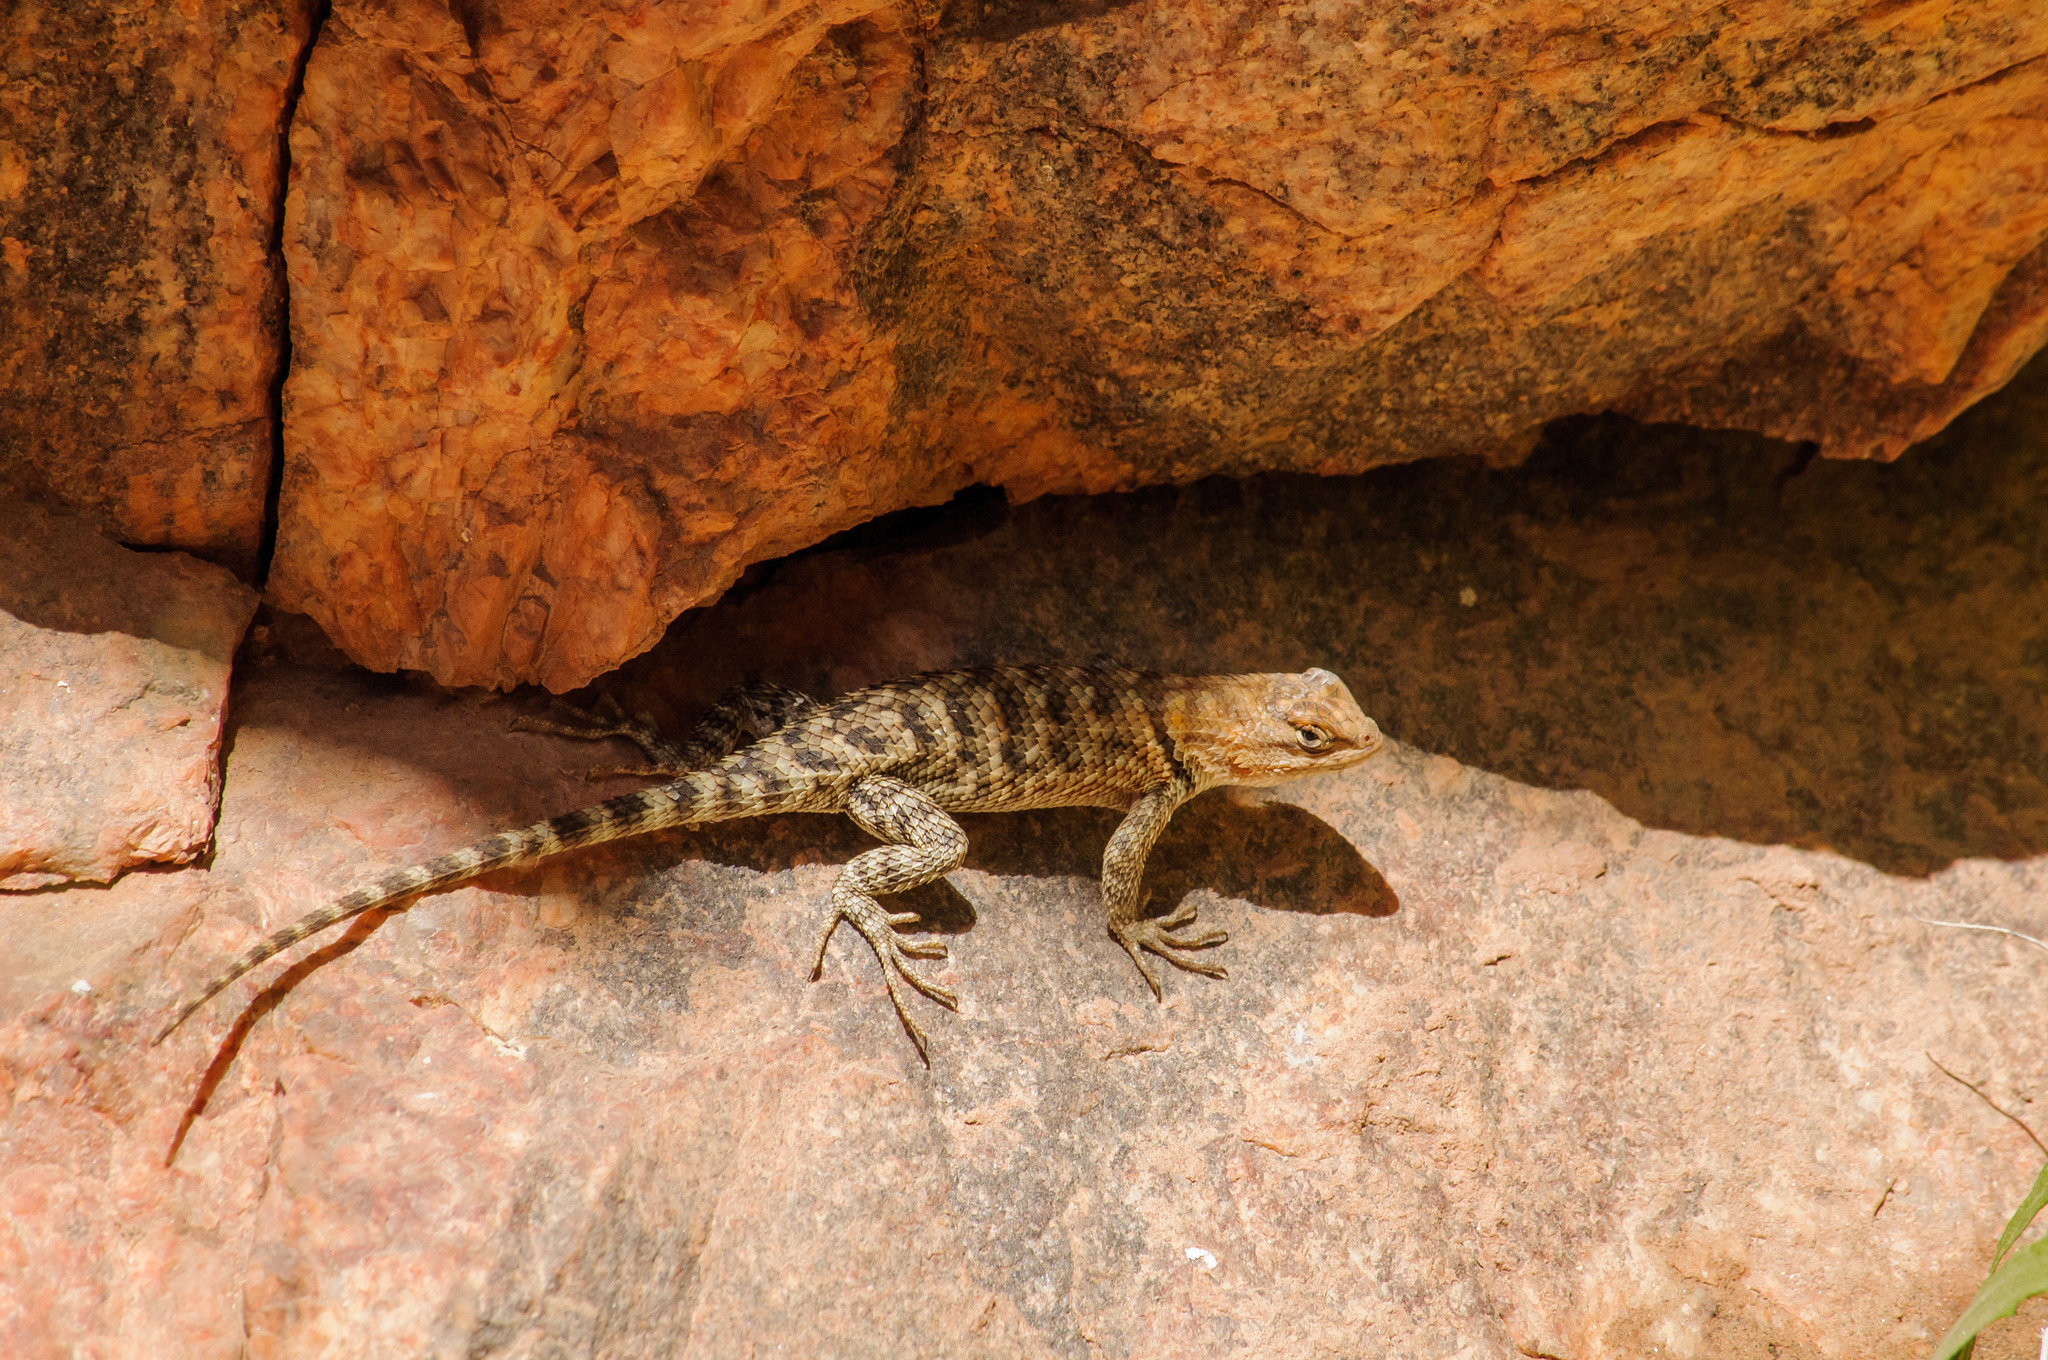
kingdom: Animalia
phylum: Chordata
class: Squamata
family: Phrynosomatidae
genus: Sceloporus
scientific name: Sceloporus magister
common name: Desert spiny lizard
